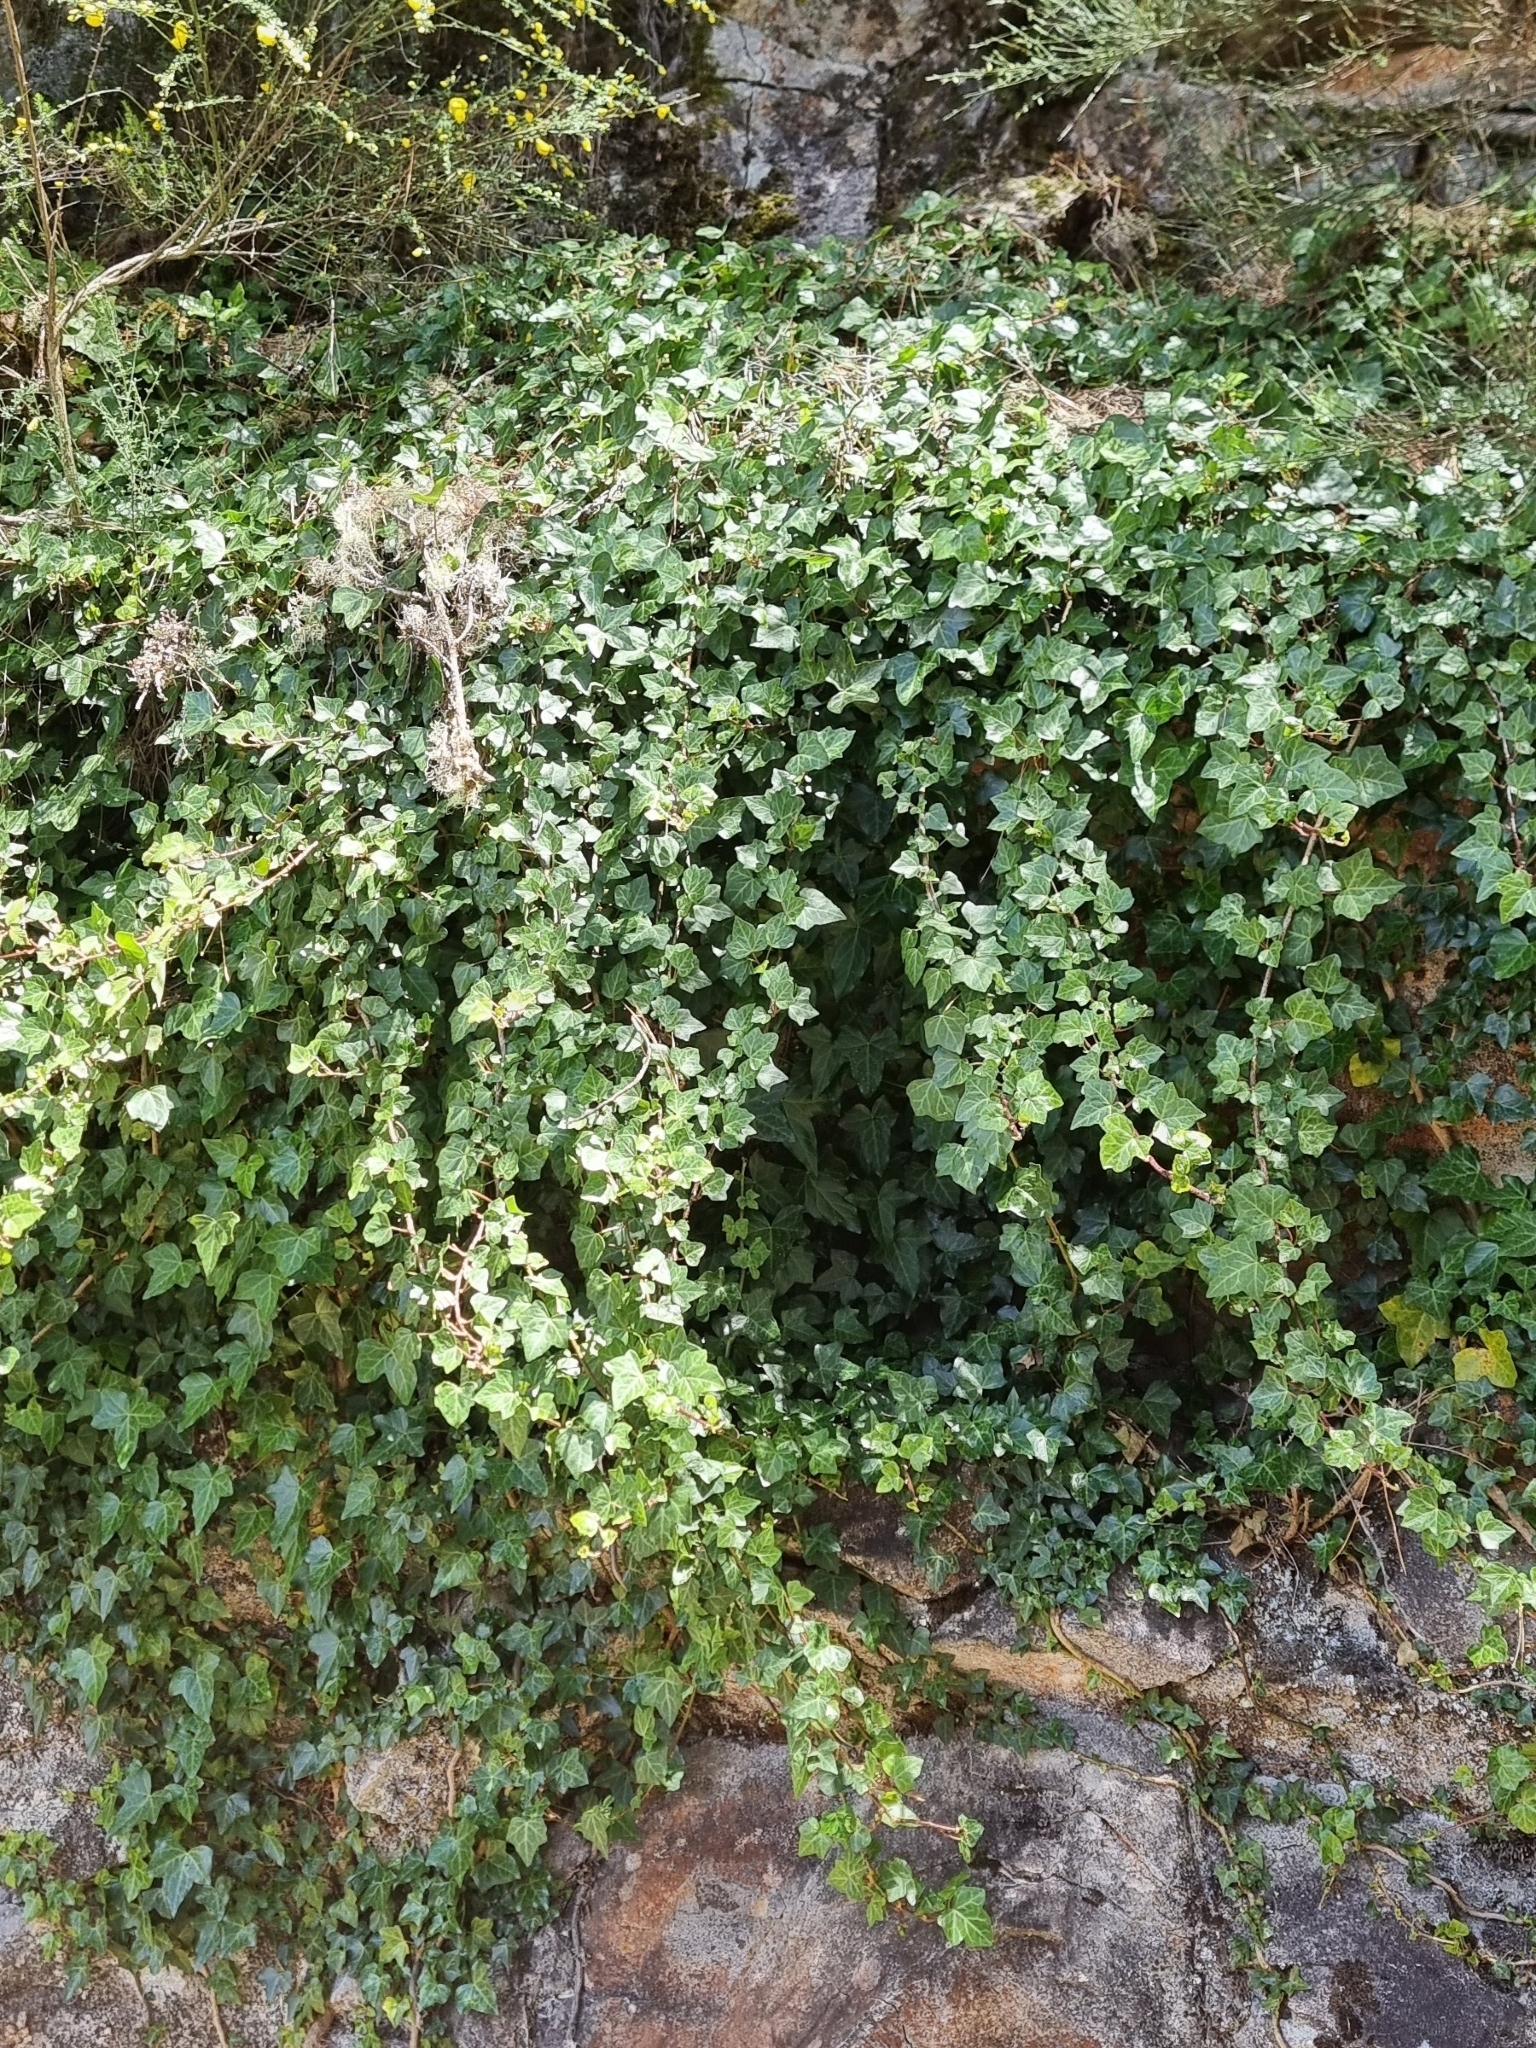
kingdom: Plantae
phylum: Tracheophyta
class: Magnoliopsida
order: Apiales
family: Araliaceae
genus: Hedera
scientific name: Hedera maderensis
